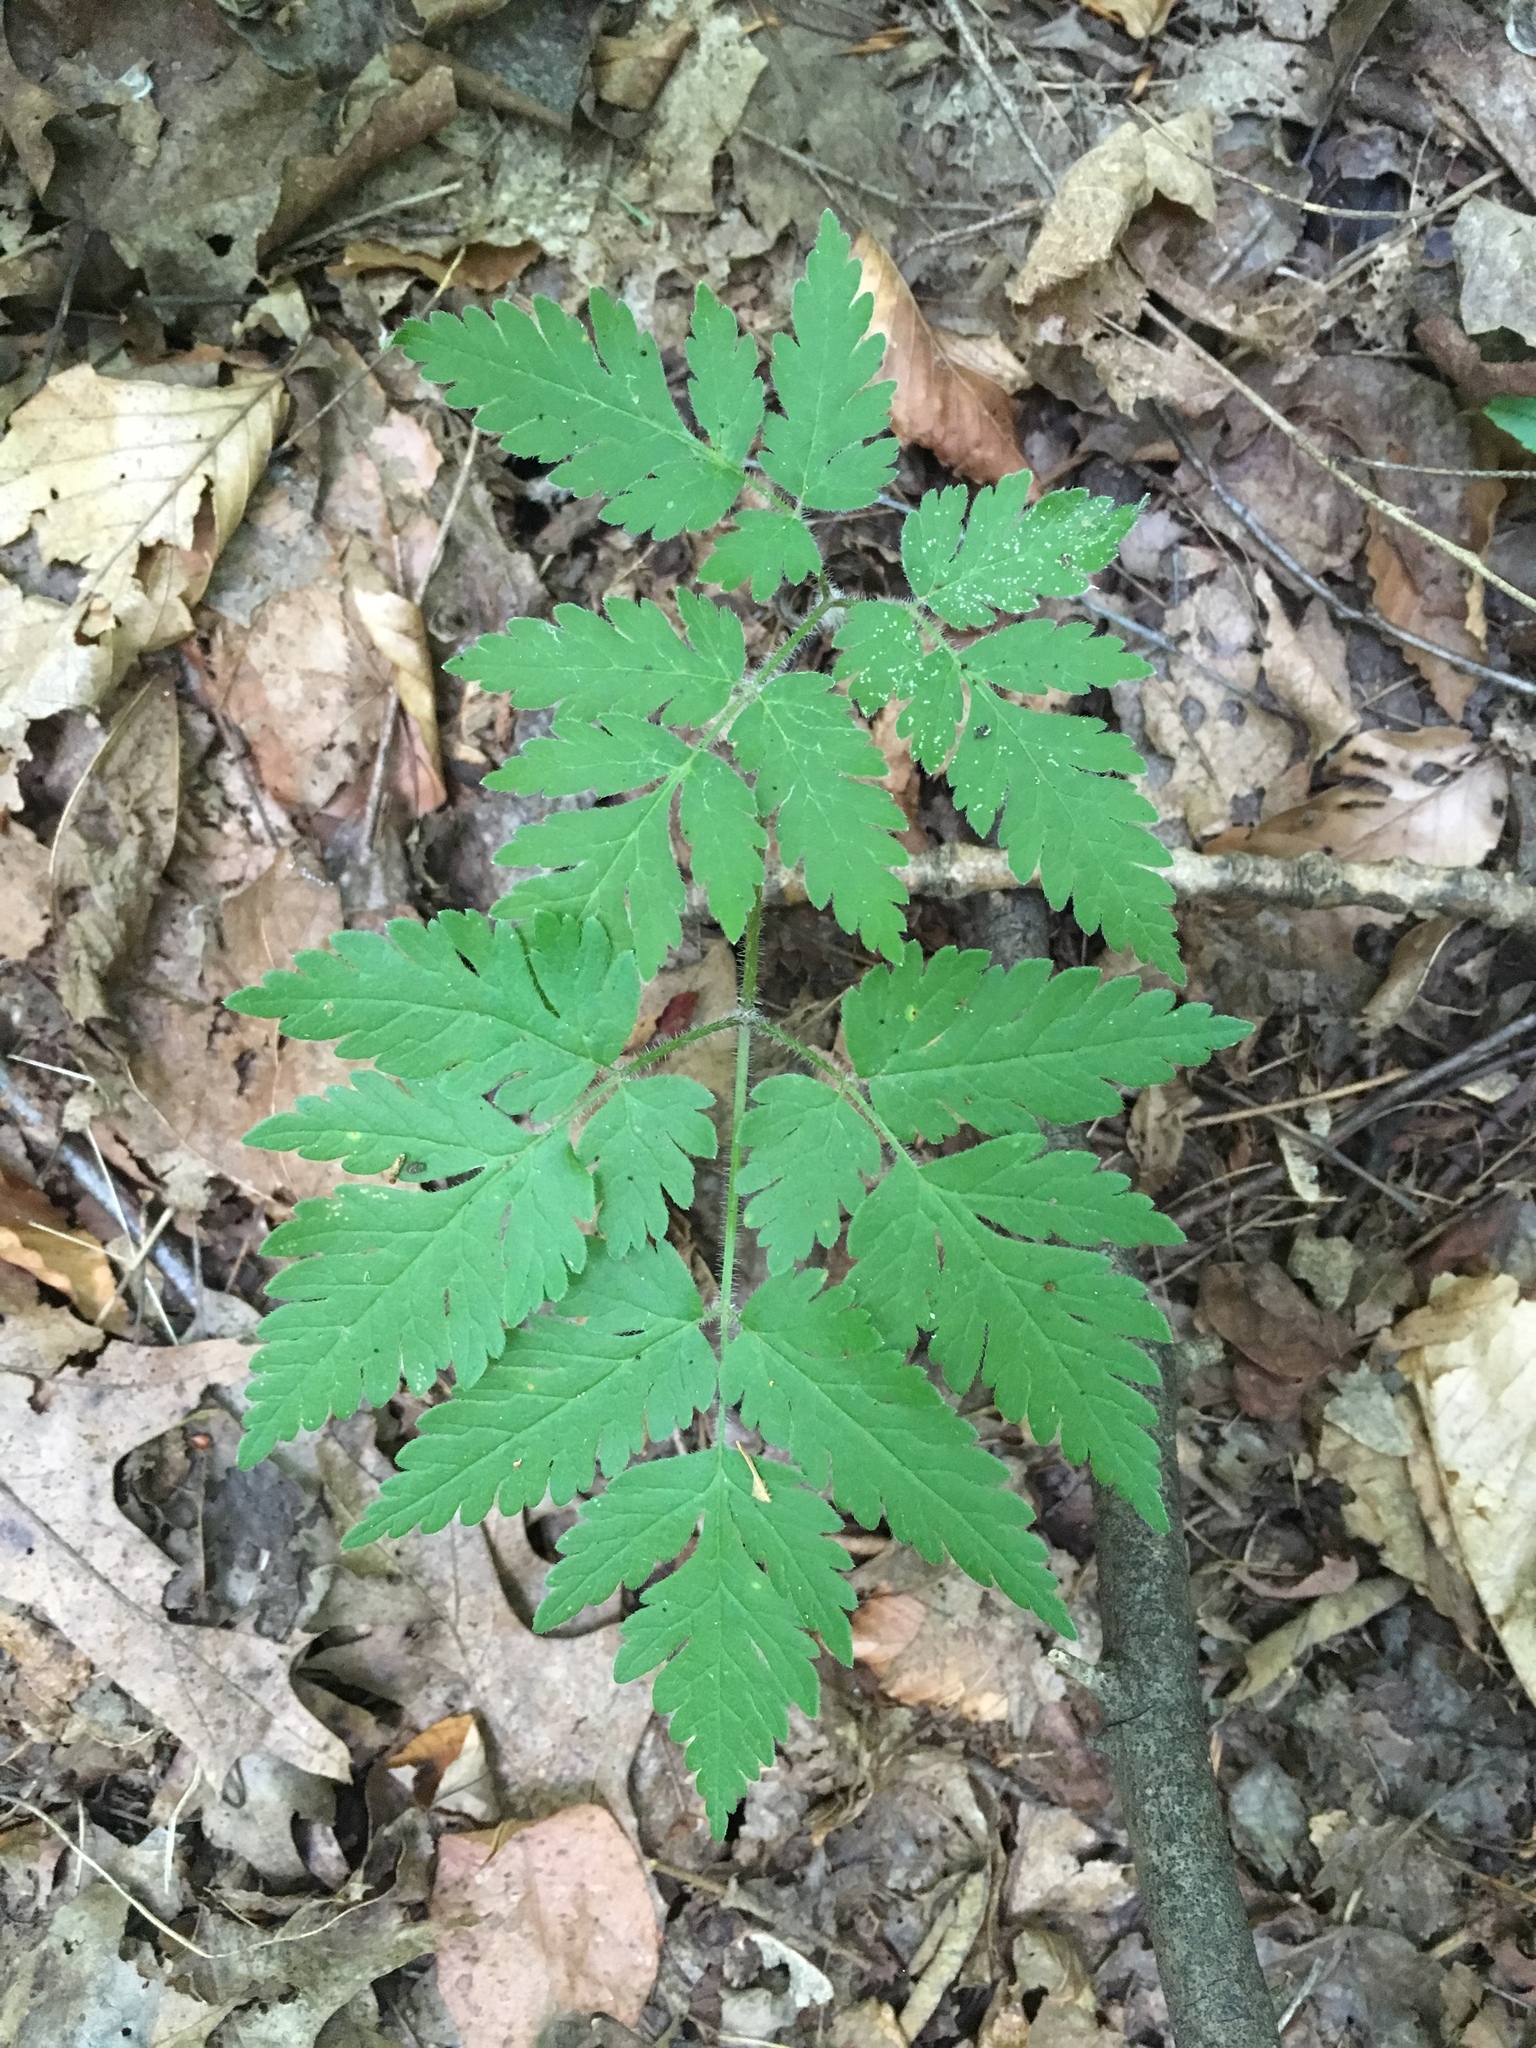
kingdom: Plantae
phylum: Tracheophyta
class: Magnoliopsida
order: Apiales
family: Apiaceae
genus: Osmorhiza
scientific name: Osmorhiza claytonii
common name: Hairy sweet cicely
